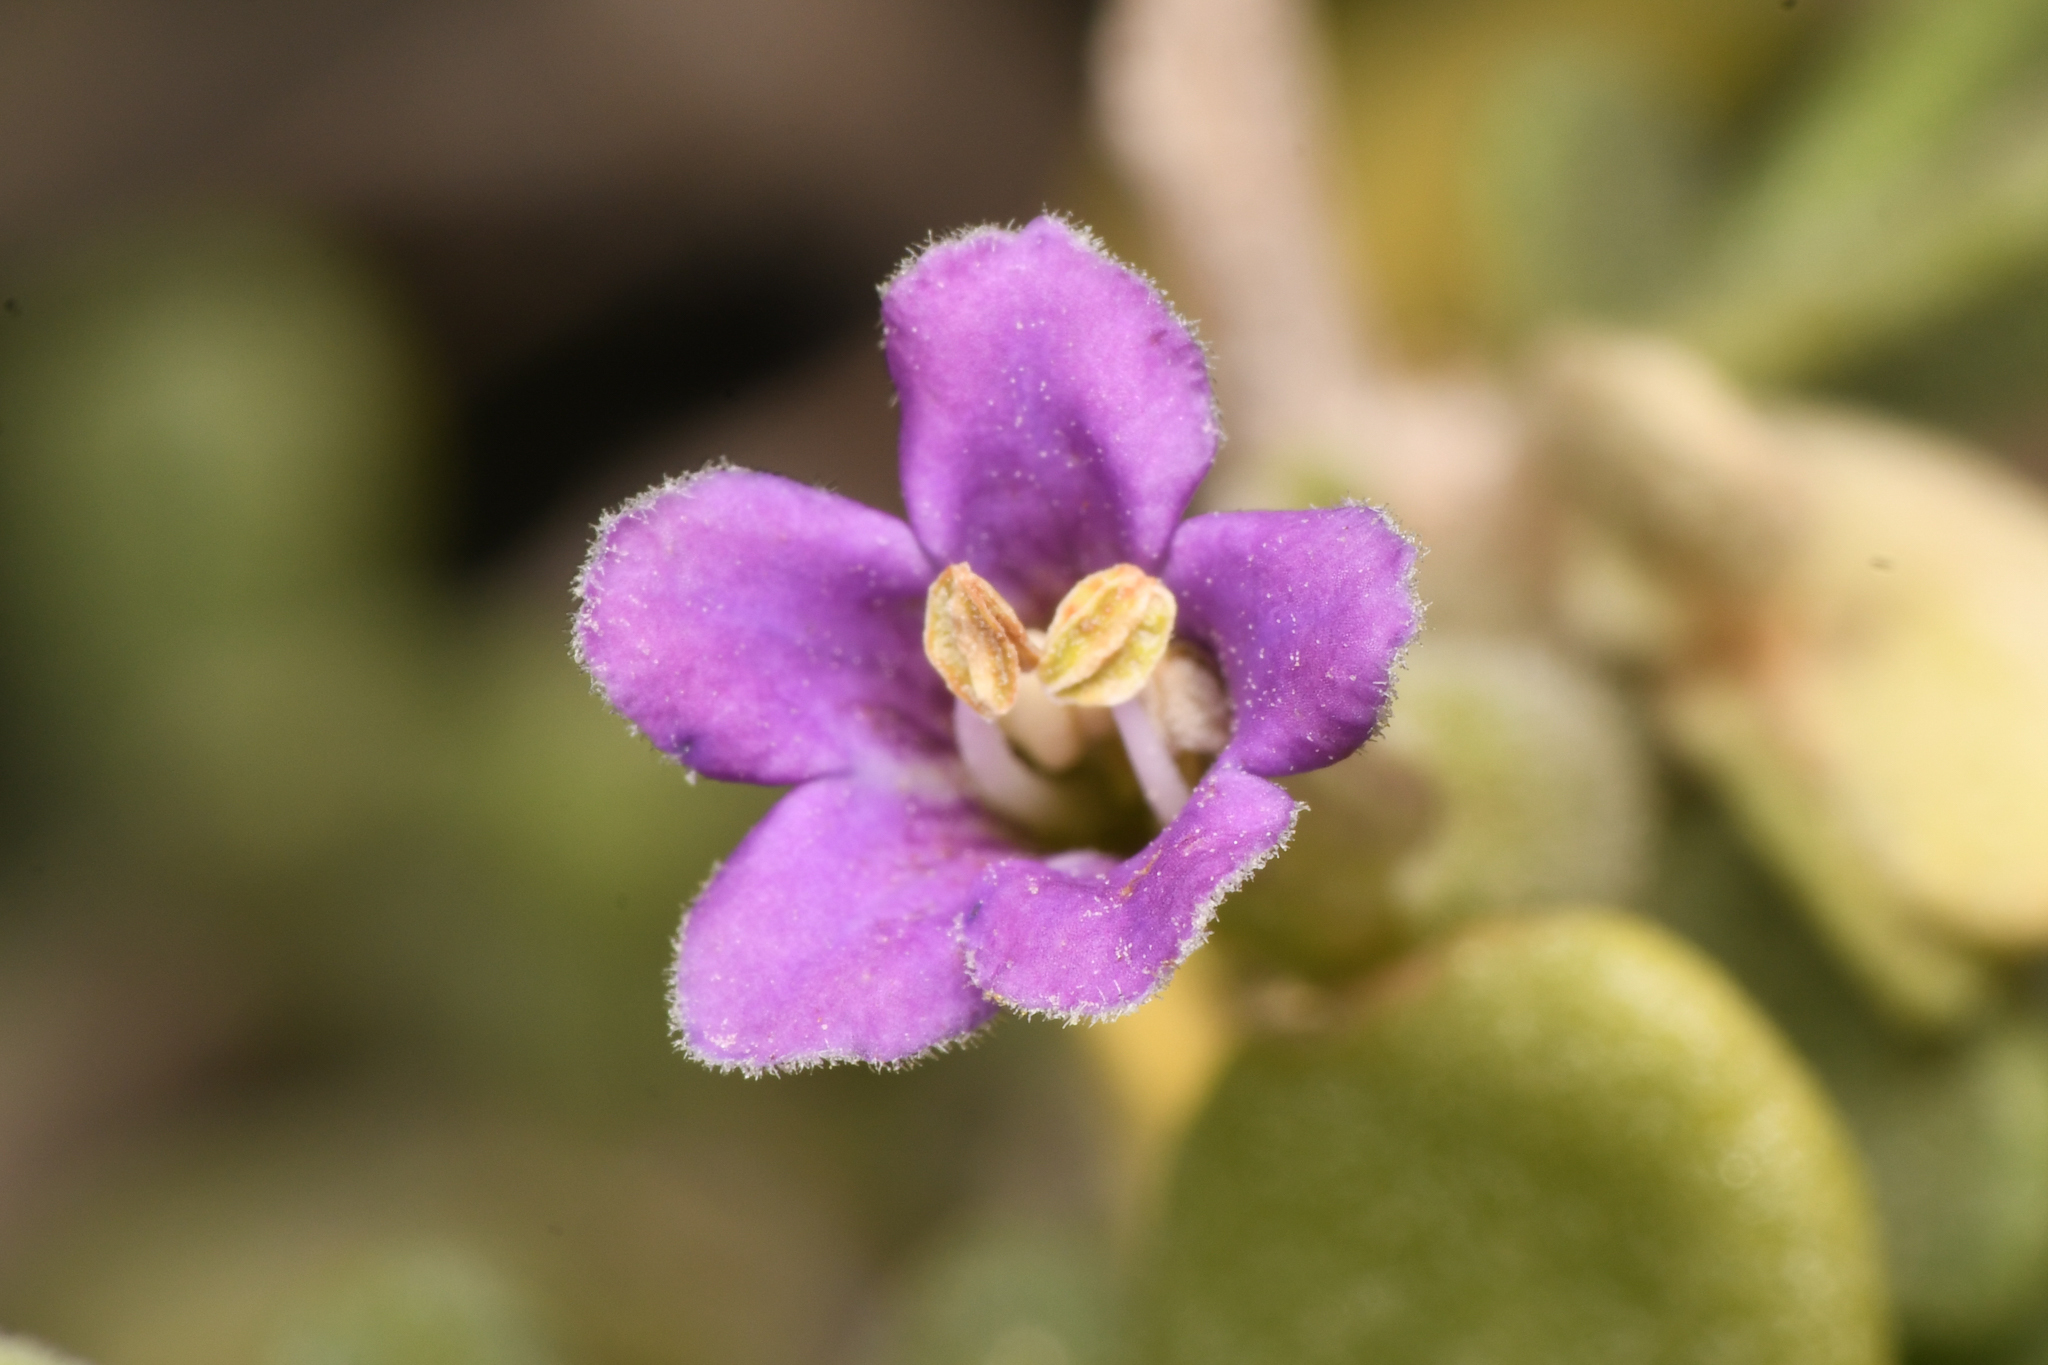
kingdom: Plantae
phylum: Tracheophyta
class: Magnoliopsida
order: Solanales
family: Solanaceae
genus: Lycium
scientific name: Lycium fremontii
